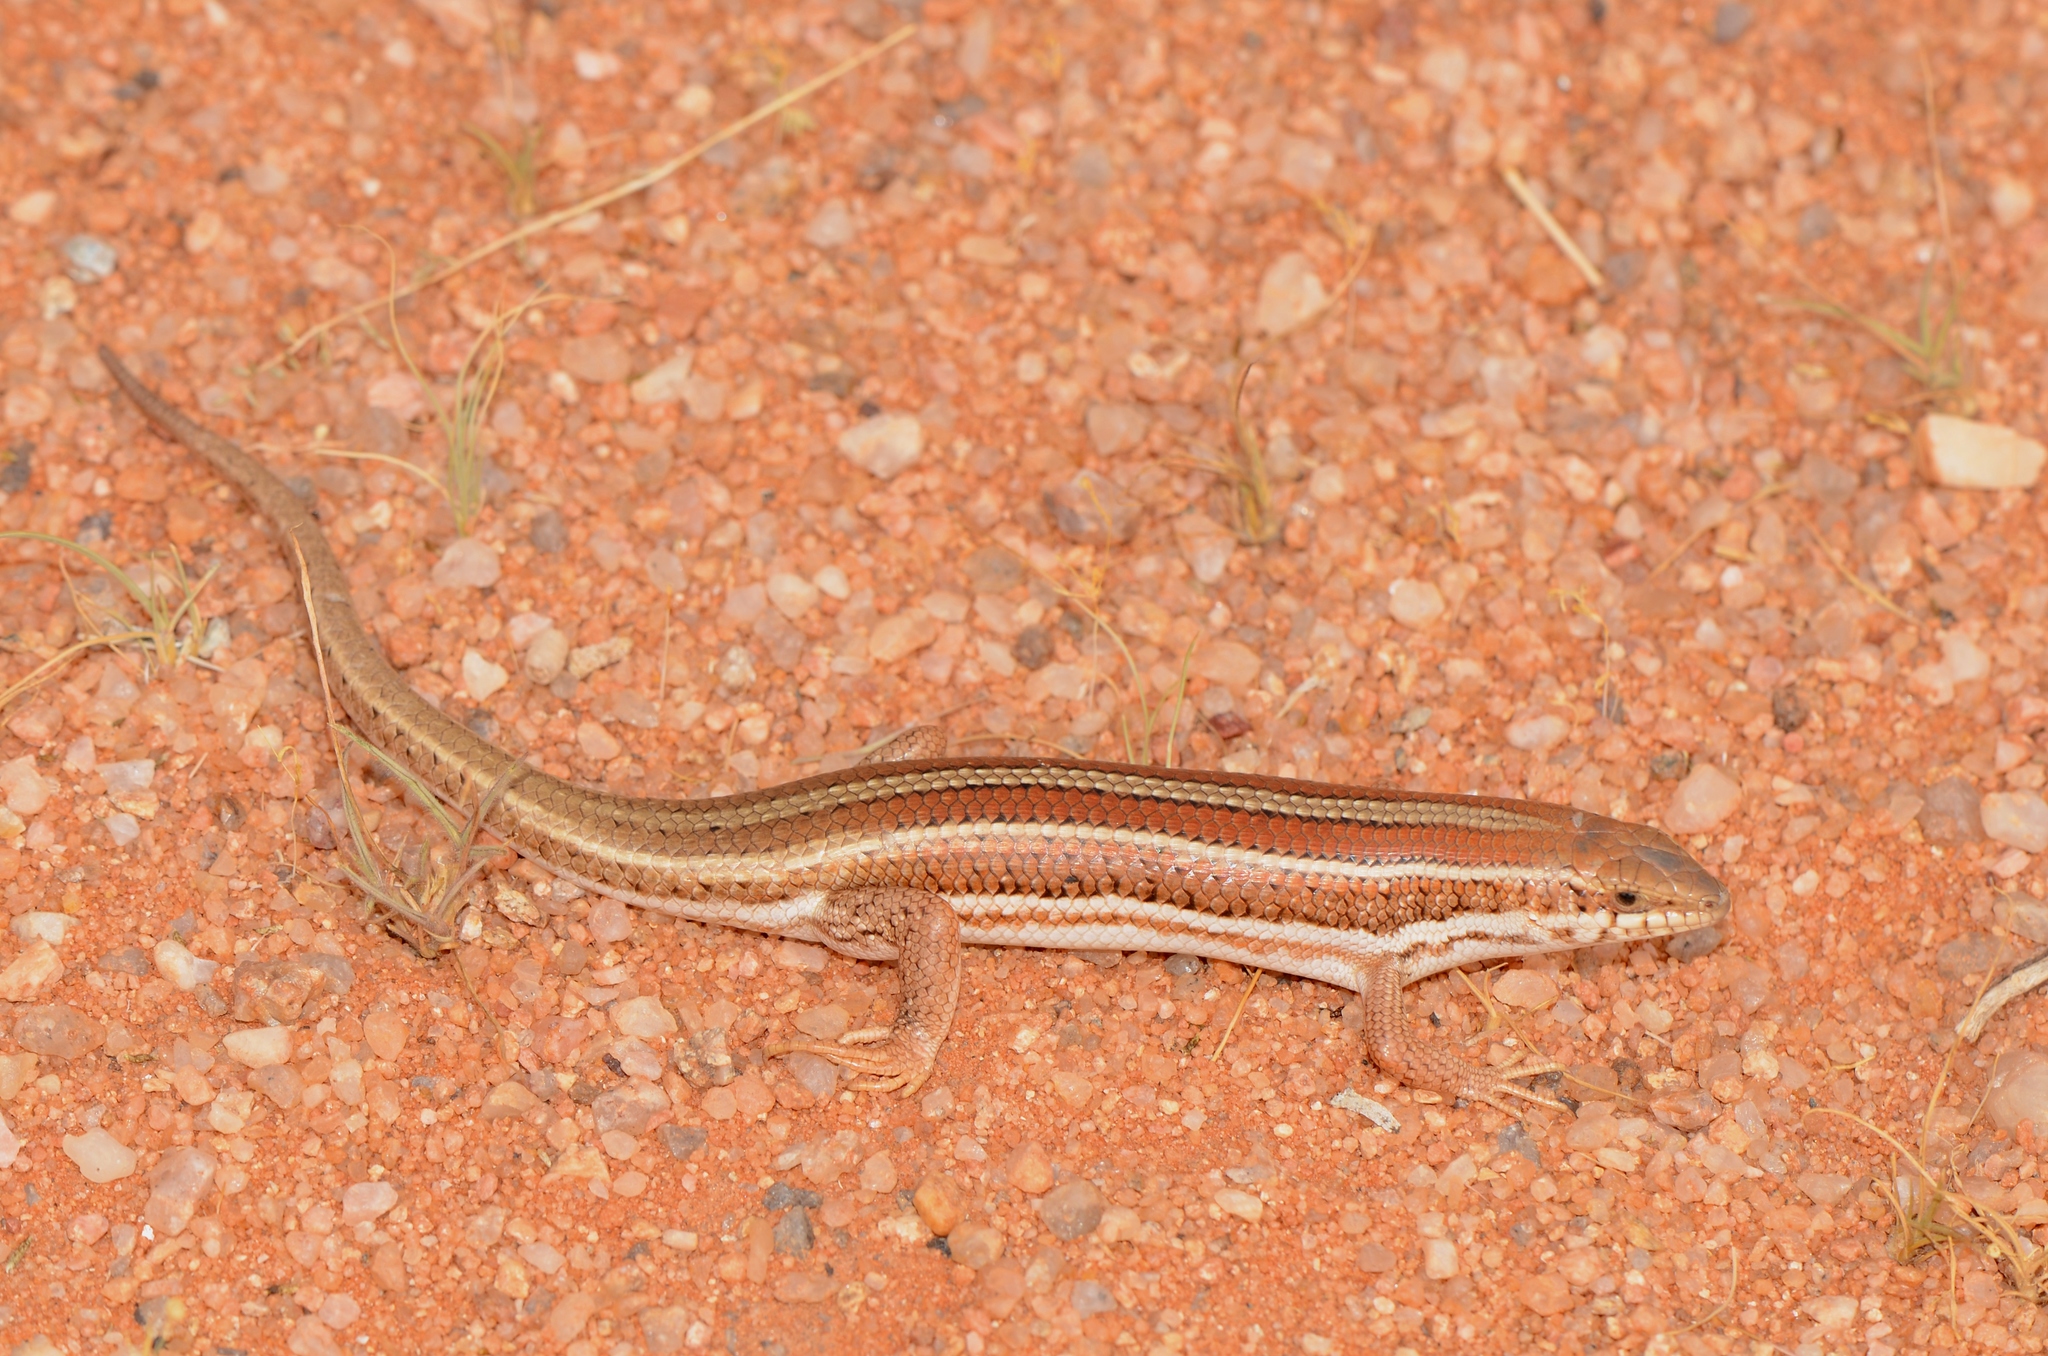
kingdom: Animalia
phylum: Chordata
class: Squamata
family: Scincidae
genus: Trachylepis
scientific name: Trachylepis occidentalis
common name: Western three-striped skink
